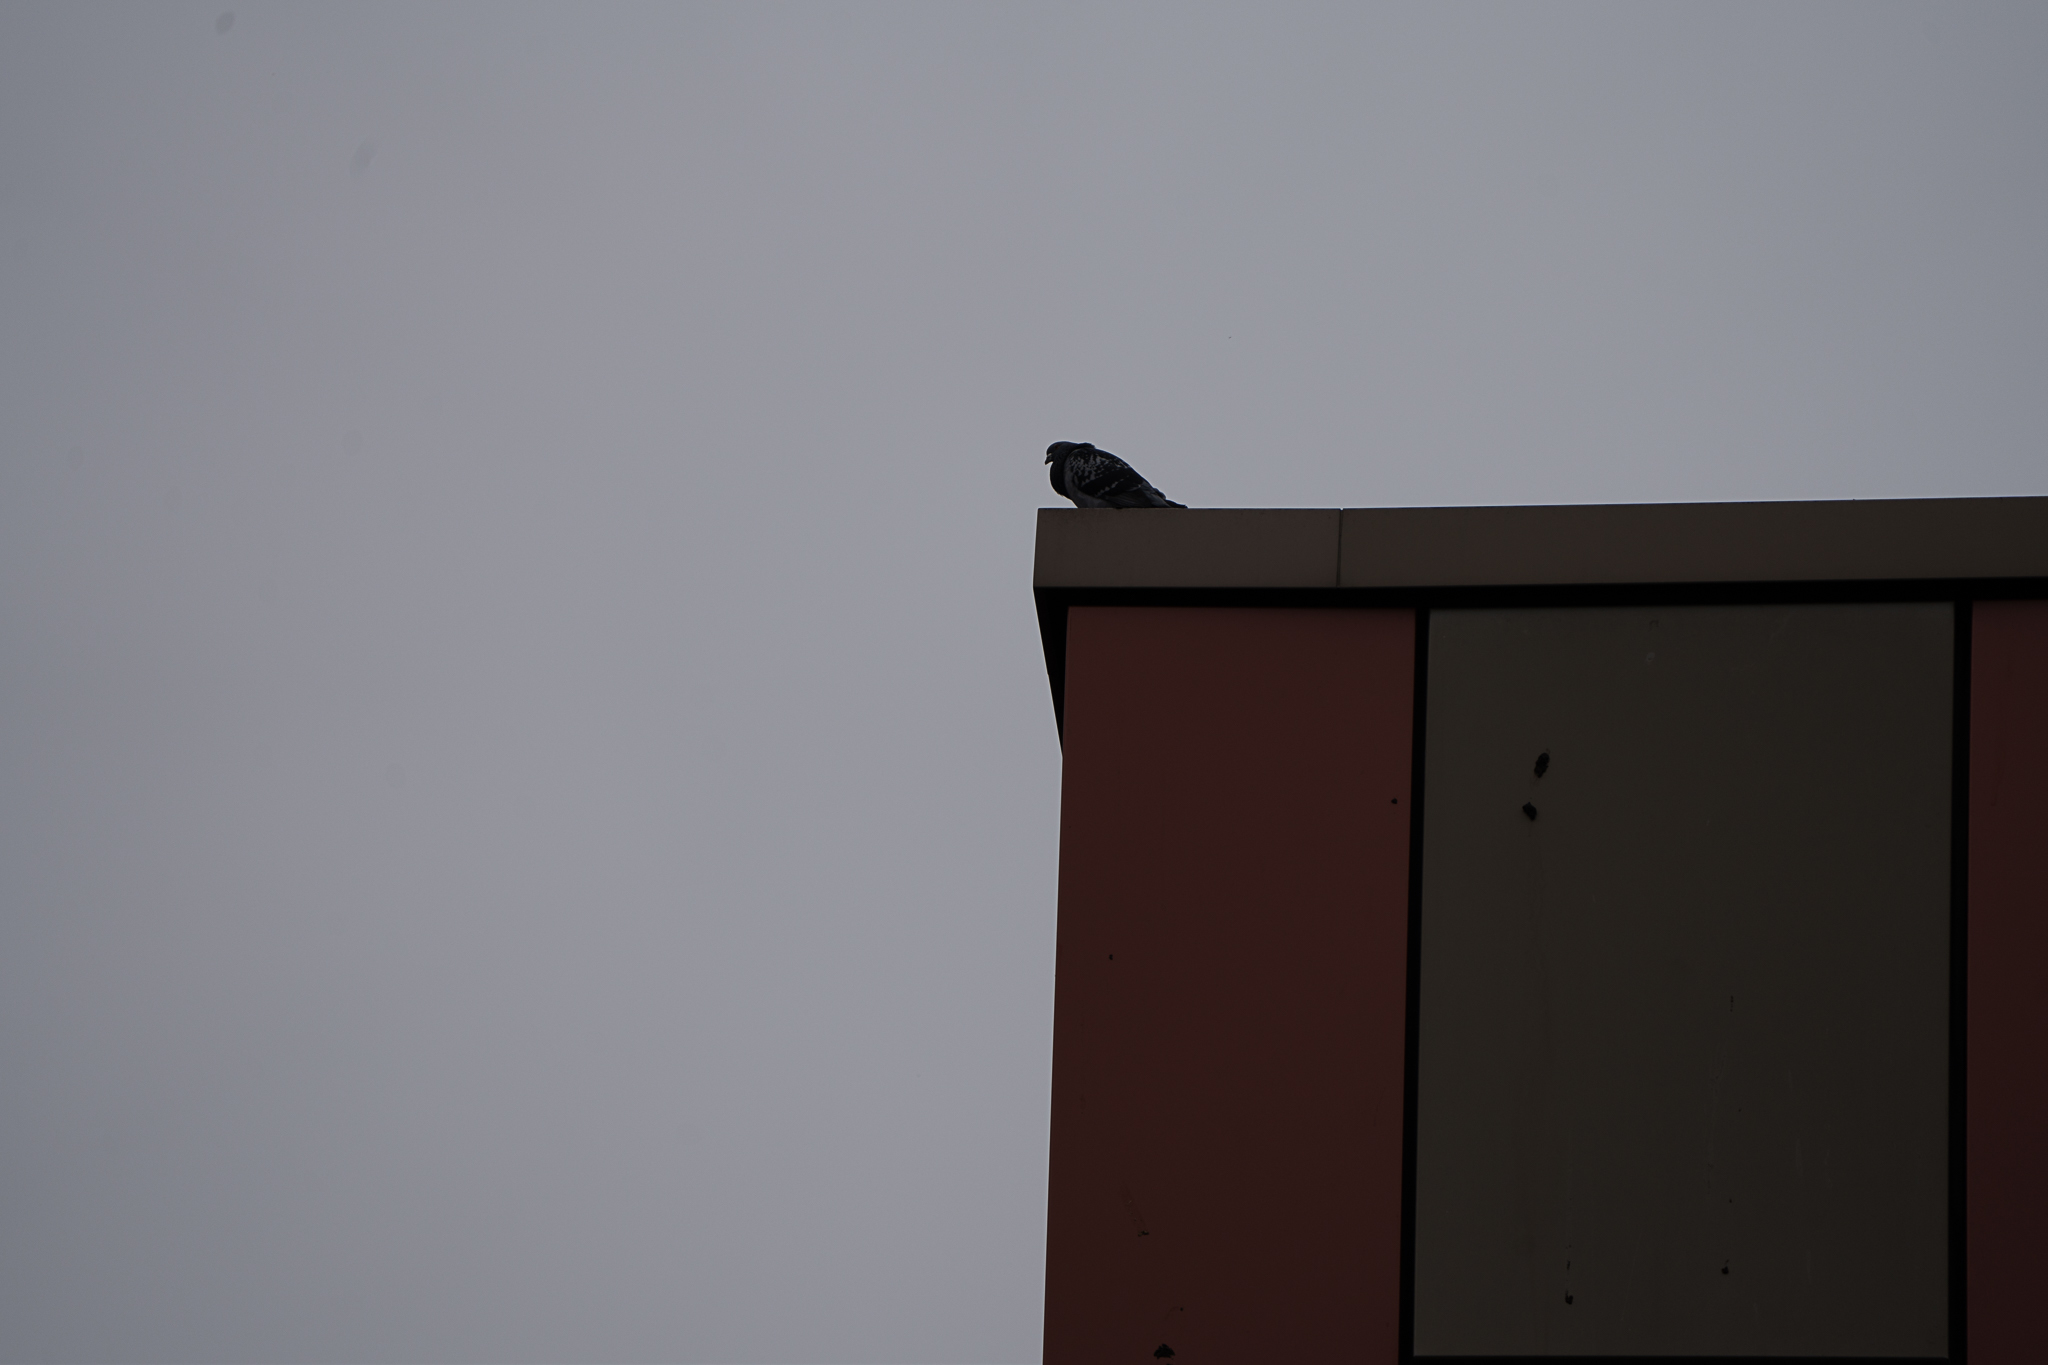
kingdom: Animalia
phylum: Chordata
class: Aves
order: Columbiformes
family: Columbidae
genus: Columba
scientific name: Columba livia
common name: Rock pigeon
